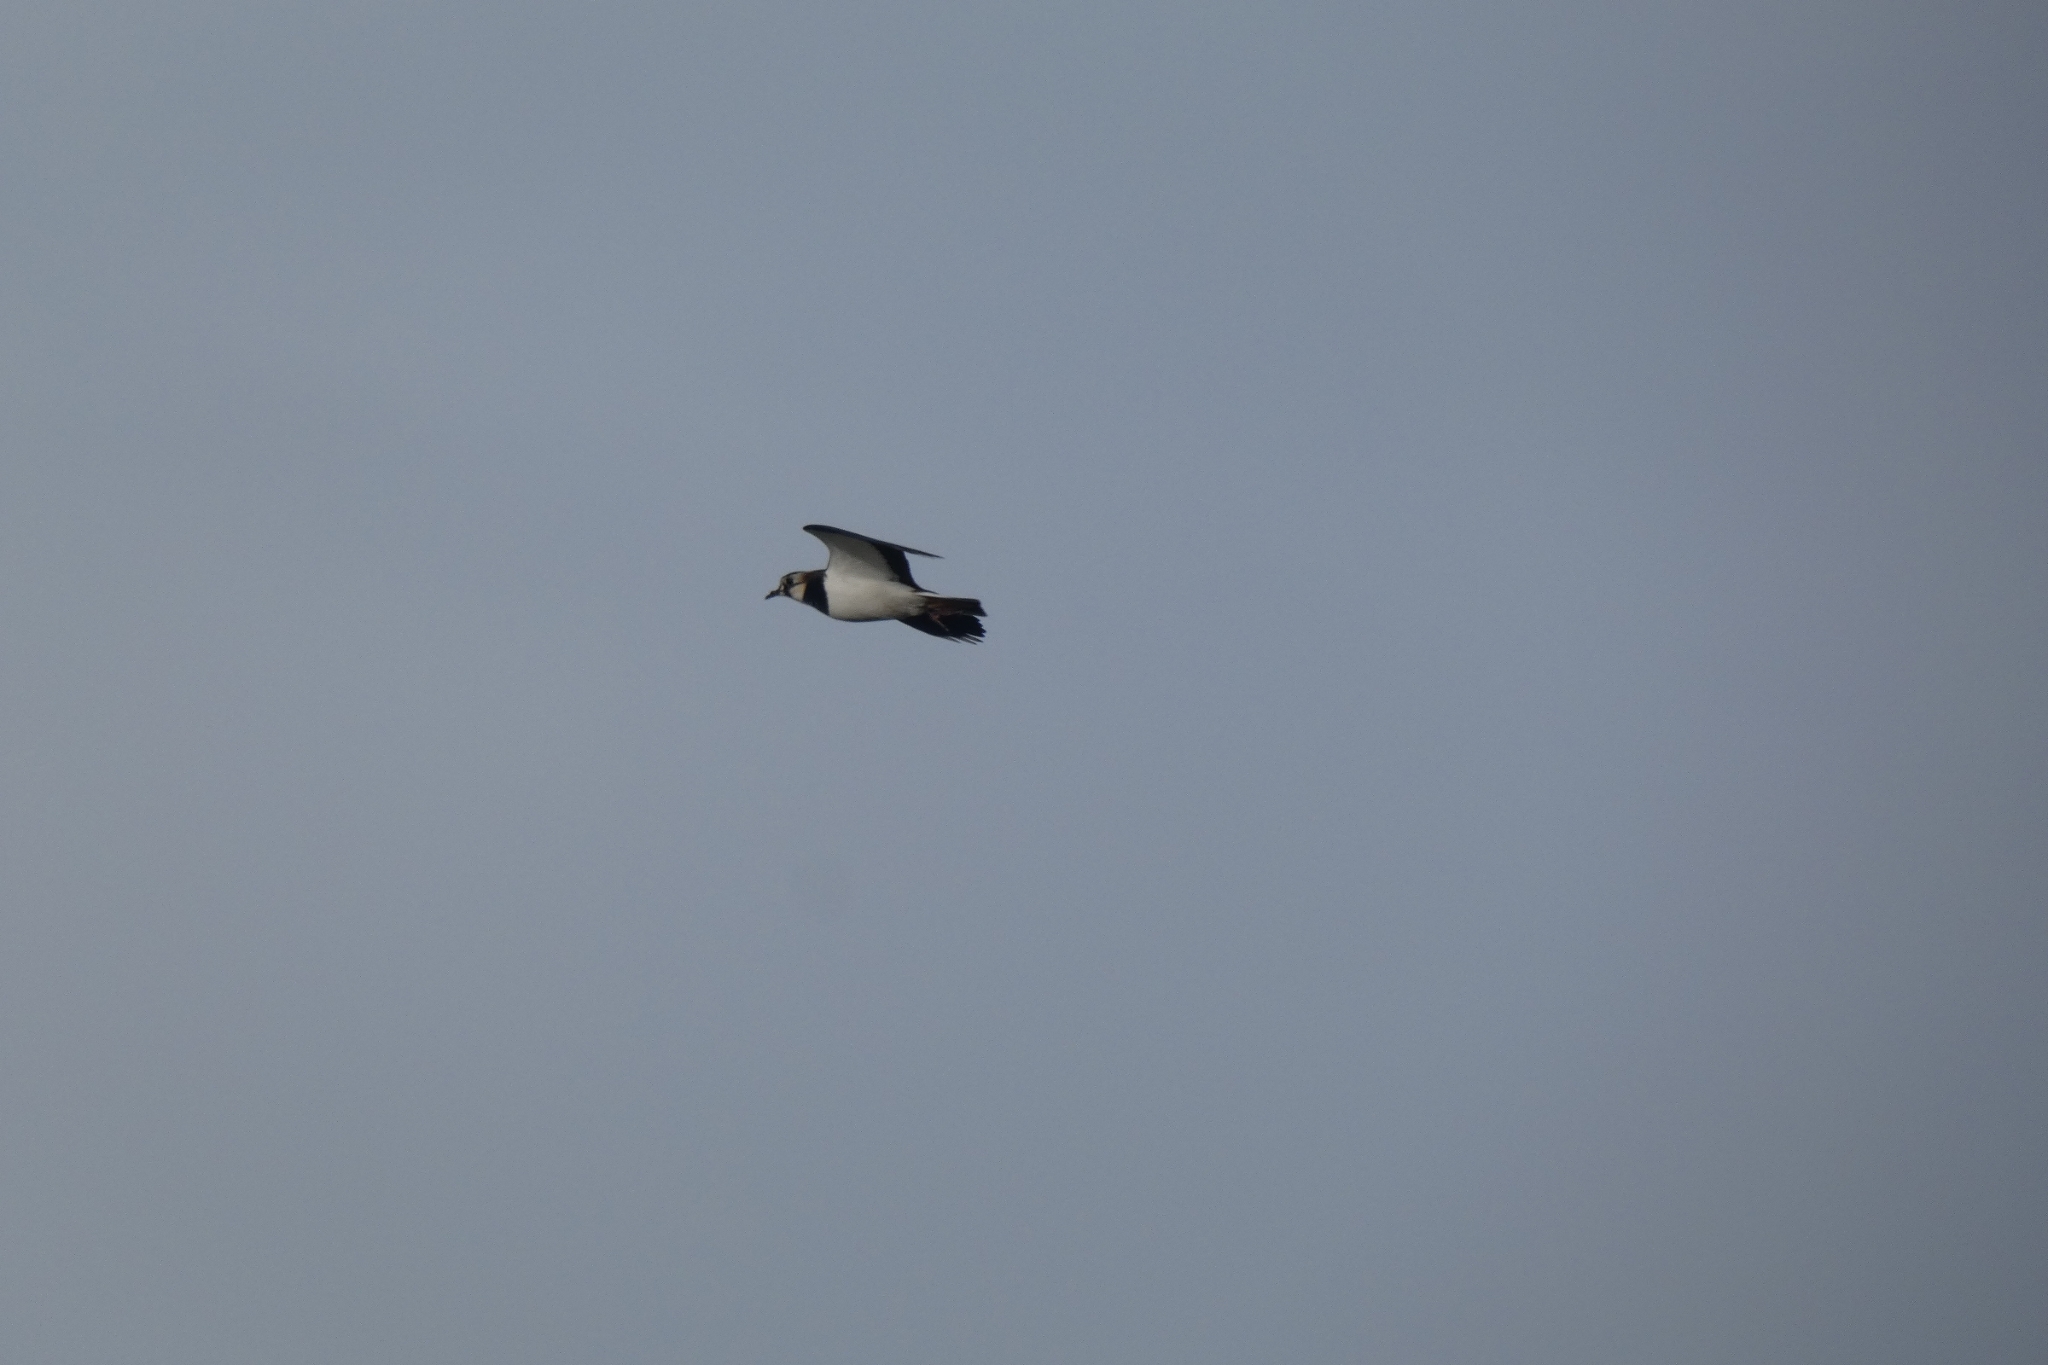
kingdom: Animalia
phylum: Chordata
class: Aves
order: Charadriiformes
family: Charadriidae
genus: Vanellus
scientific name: Vanellus vanellus
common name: Northern lapwing
